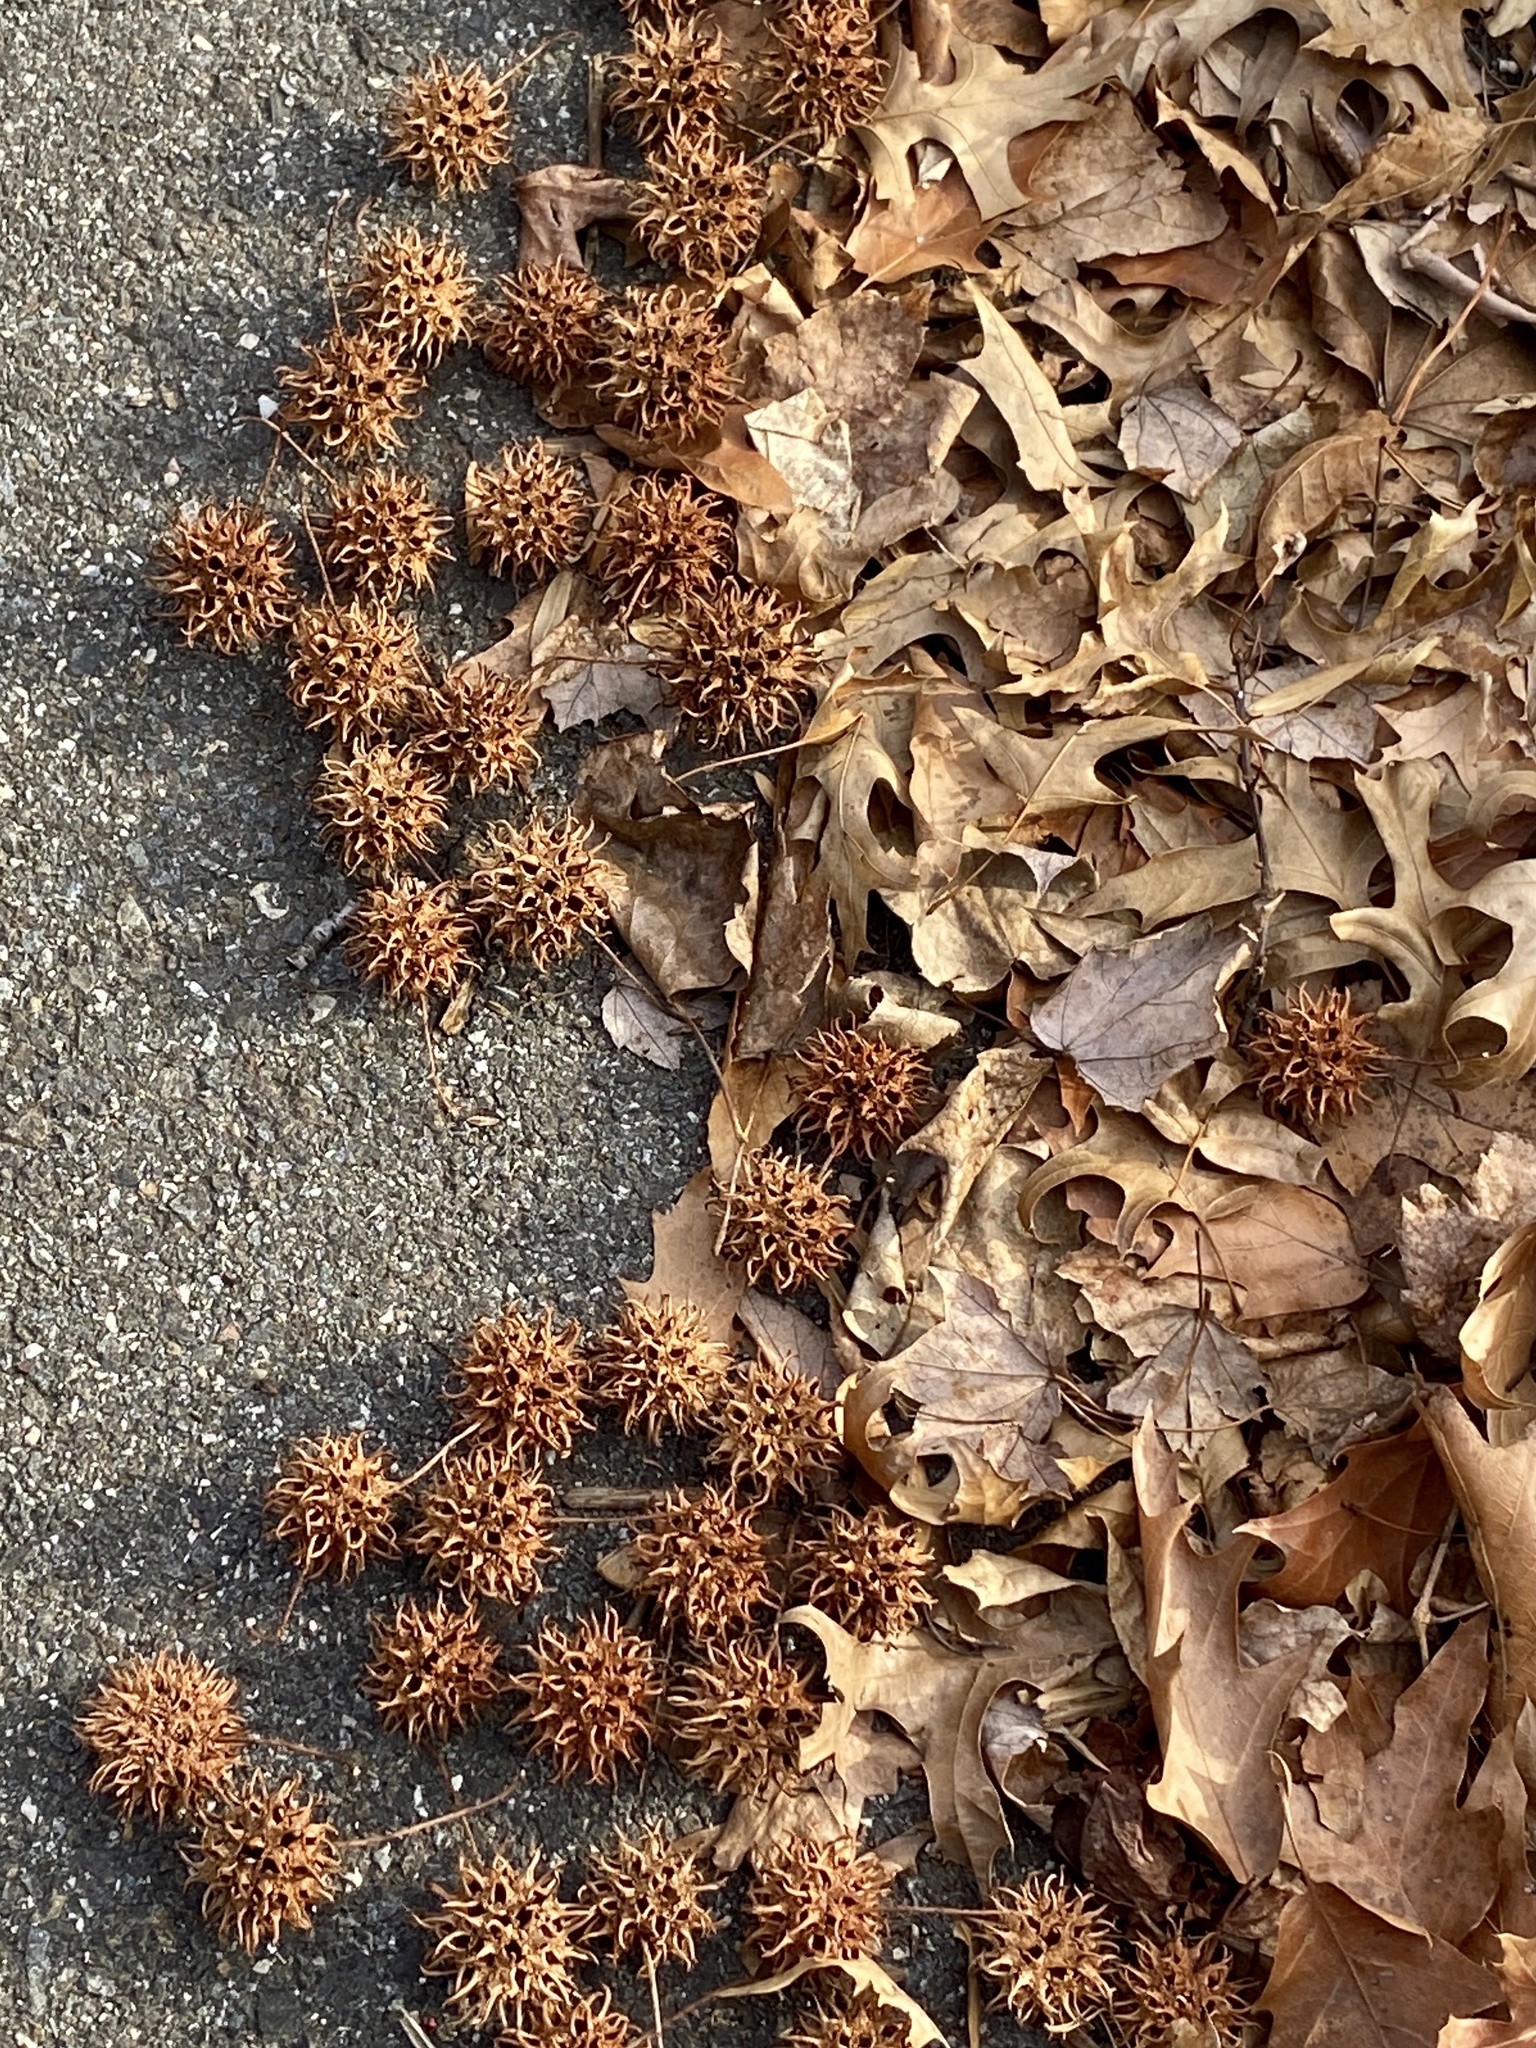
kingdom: Plantae
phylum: Tracheophyta
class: Magnoliopsida
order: Saxifragales
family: Altingiaceae
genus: Liquidambar
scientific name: Liquidambar styraciflua
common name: Sweet gum
